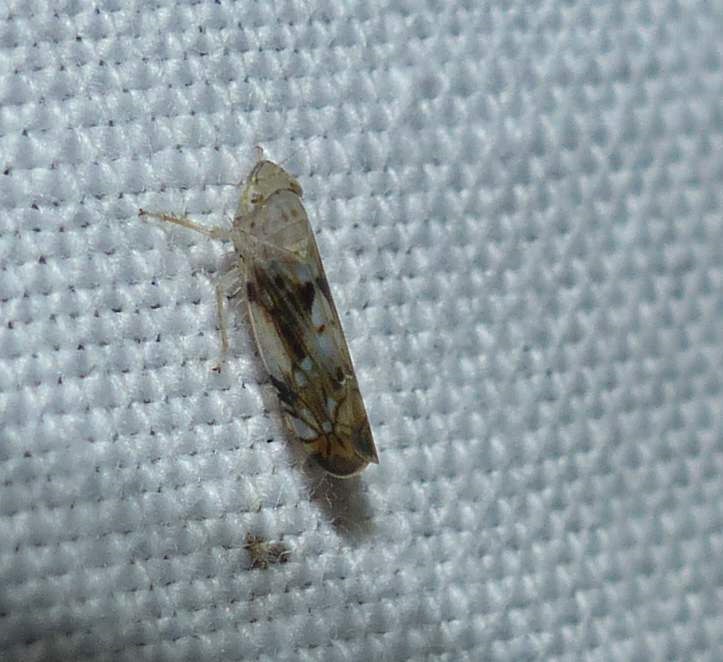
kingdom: Animalia
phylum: Arthropoda
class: Insecta
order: Hemiptera
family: Cicadellidae
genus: Scaphoideus
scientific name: Scaphoideus intricatus
